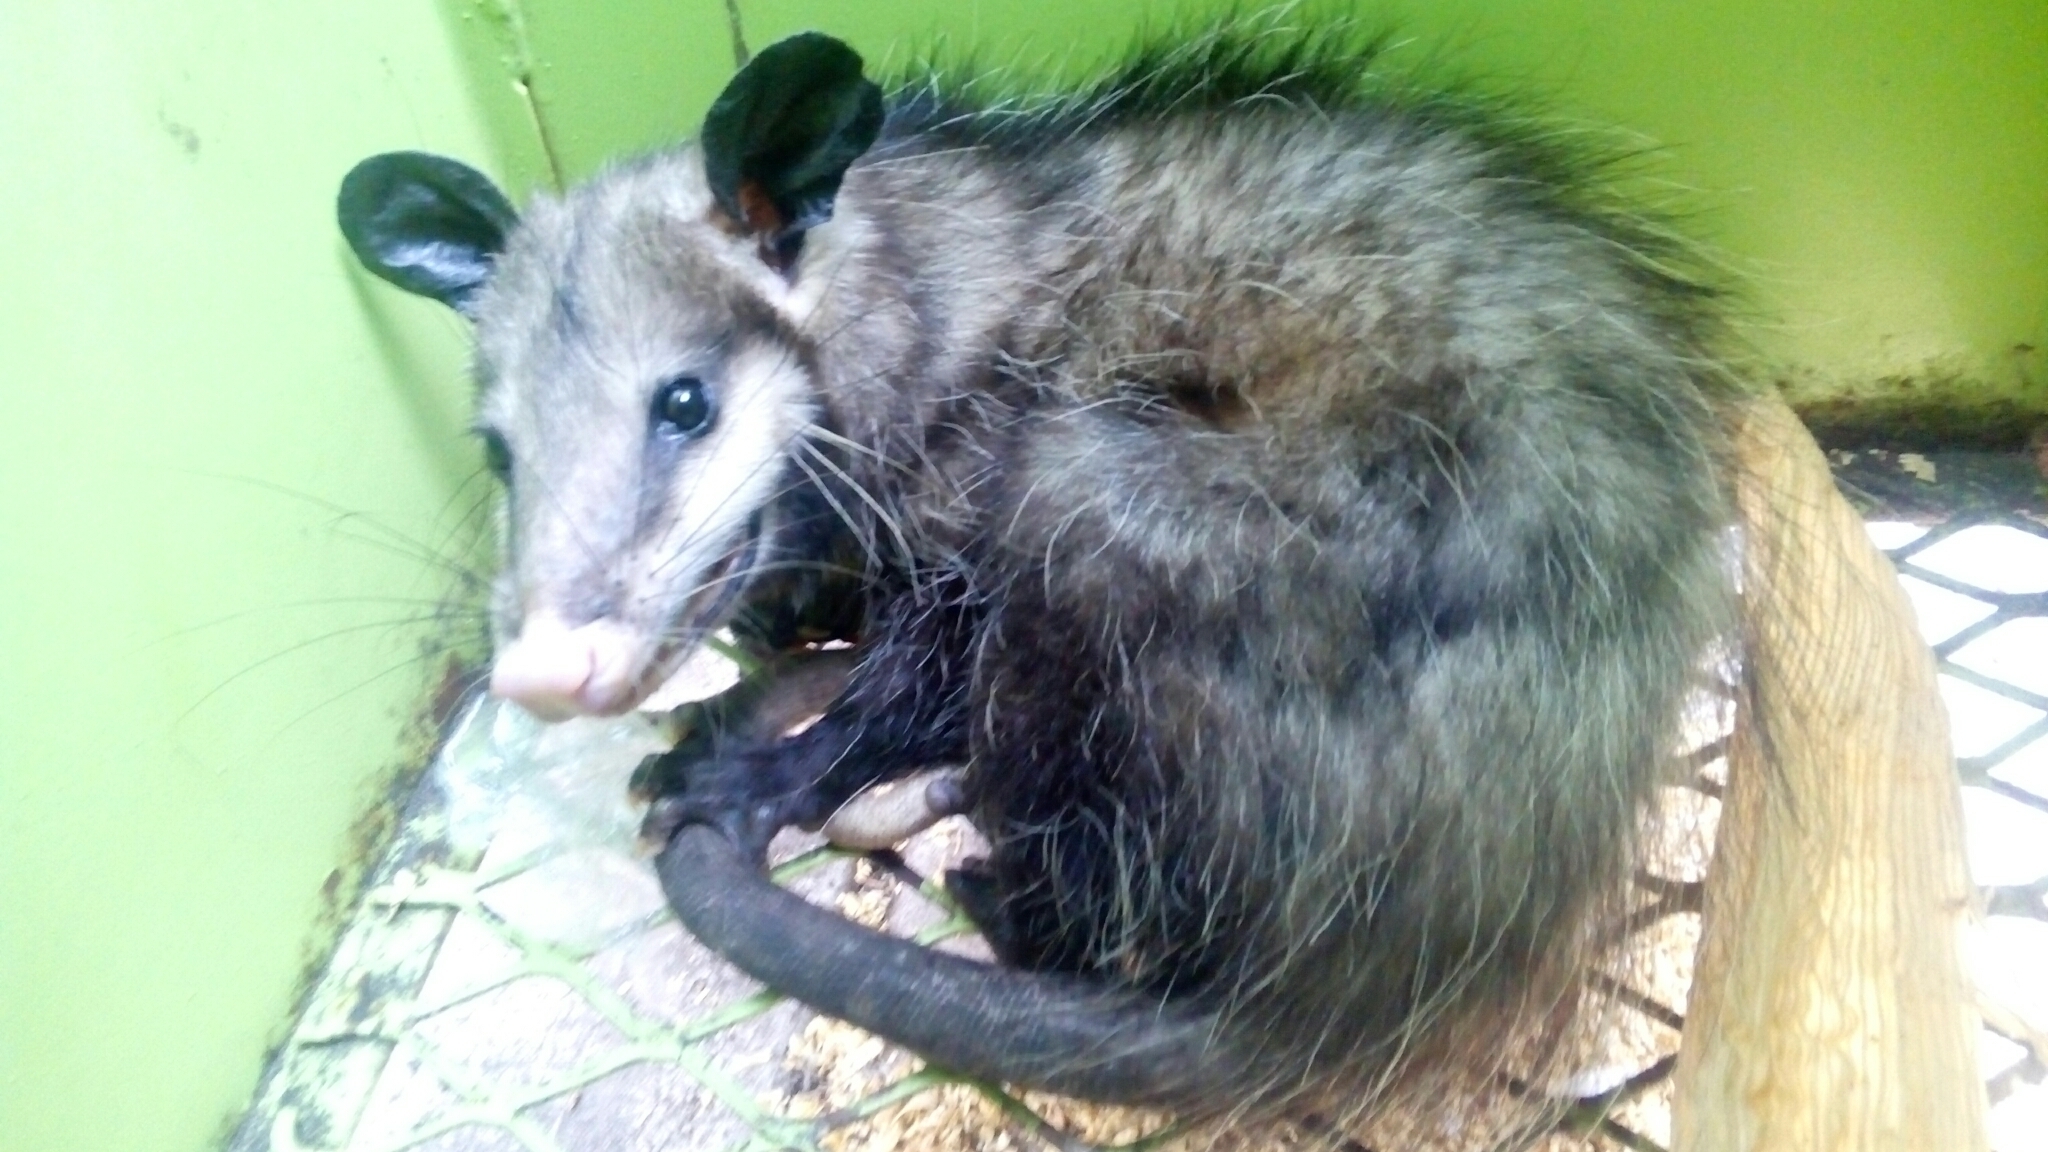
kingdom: Animalia
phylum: Chordata
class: Mammalia
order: Didelphimorphia
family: Didelphidae
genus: Didelphis
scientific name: Didelphis virginiana
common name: Virginia opossum
